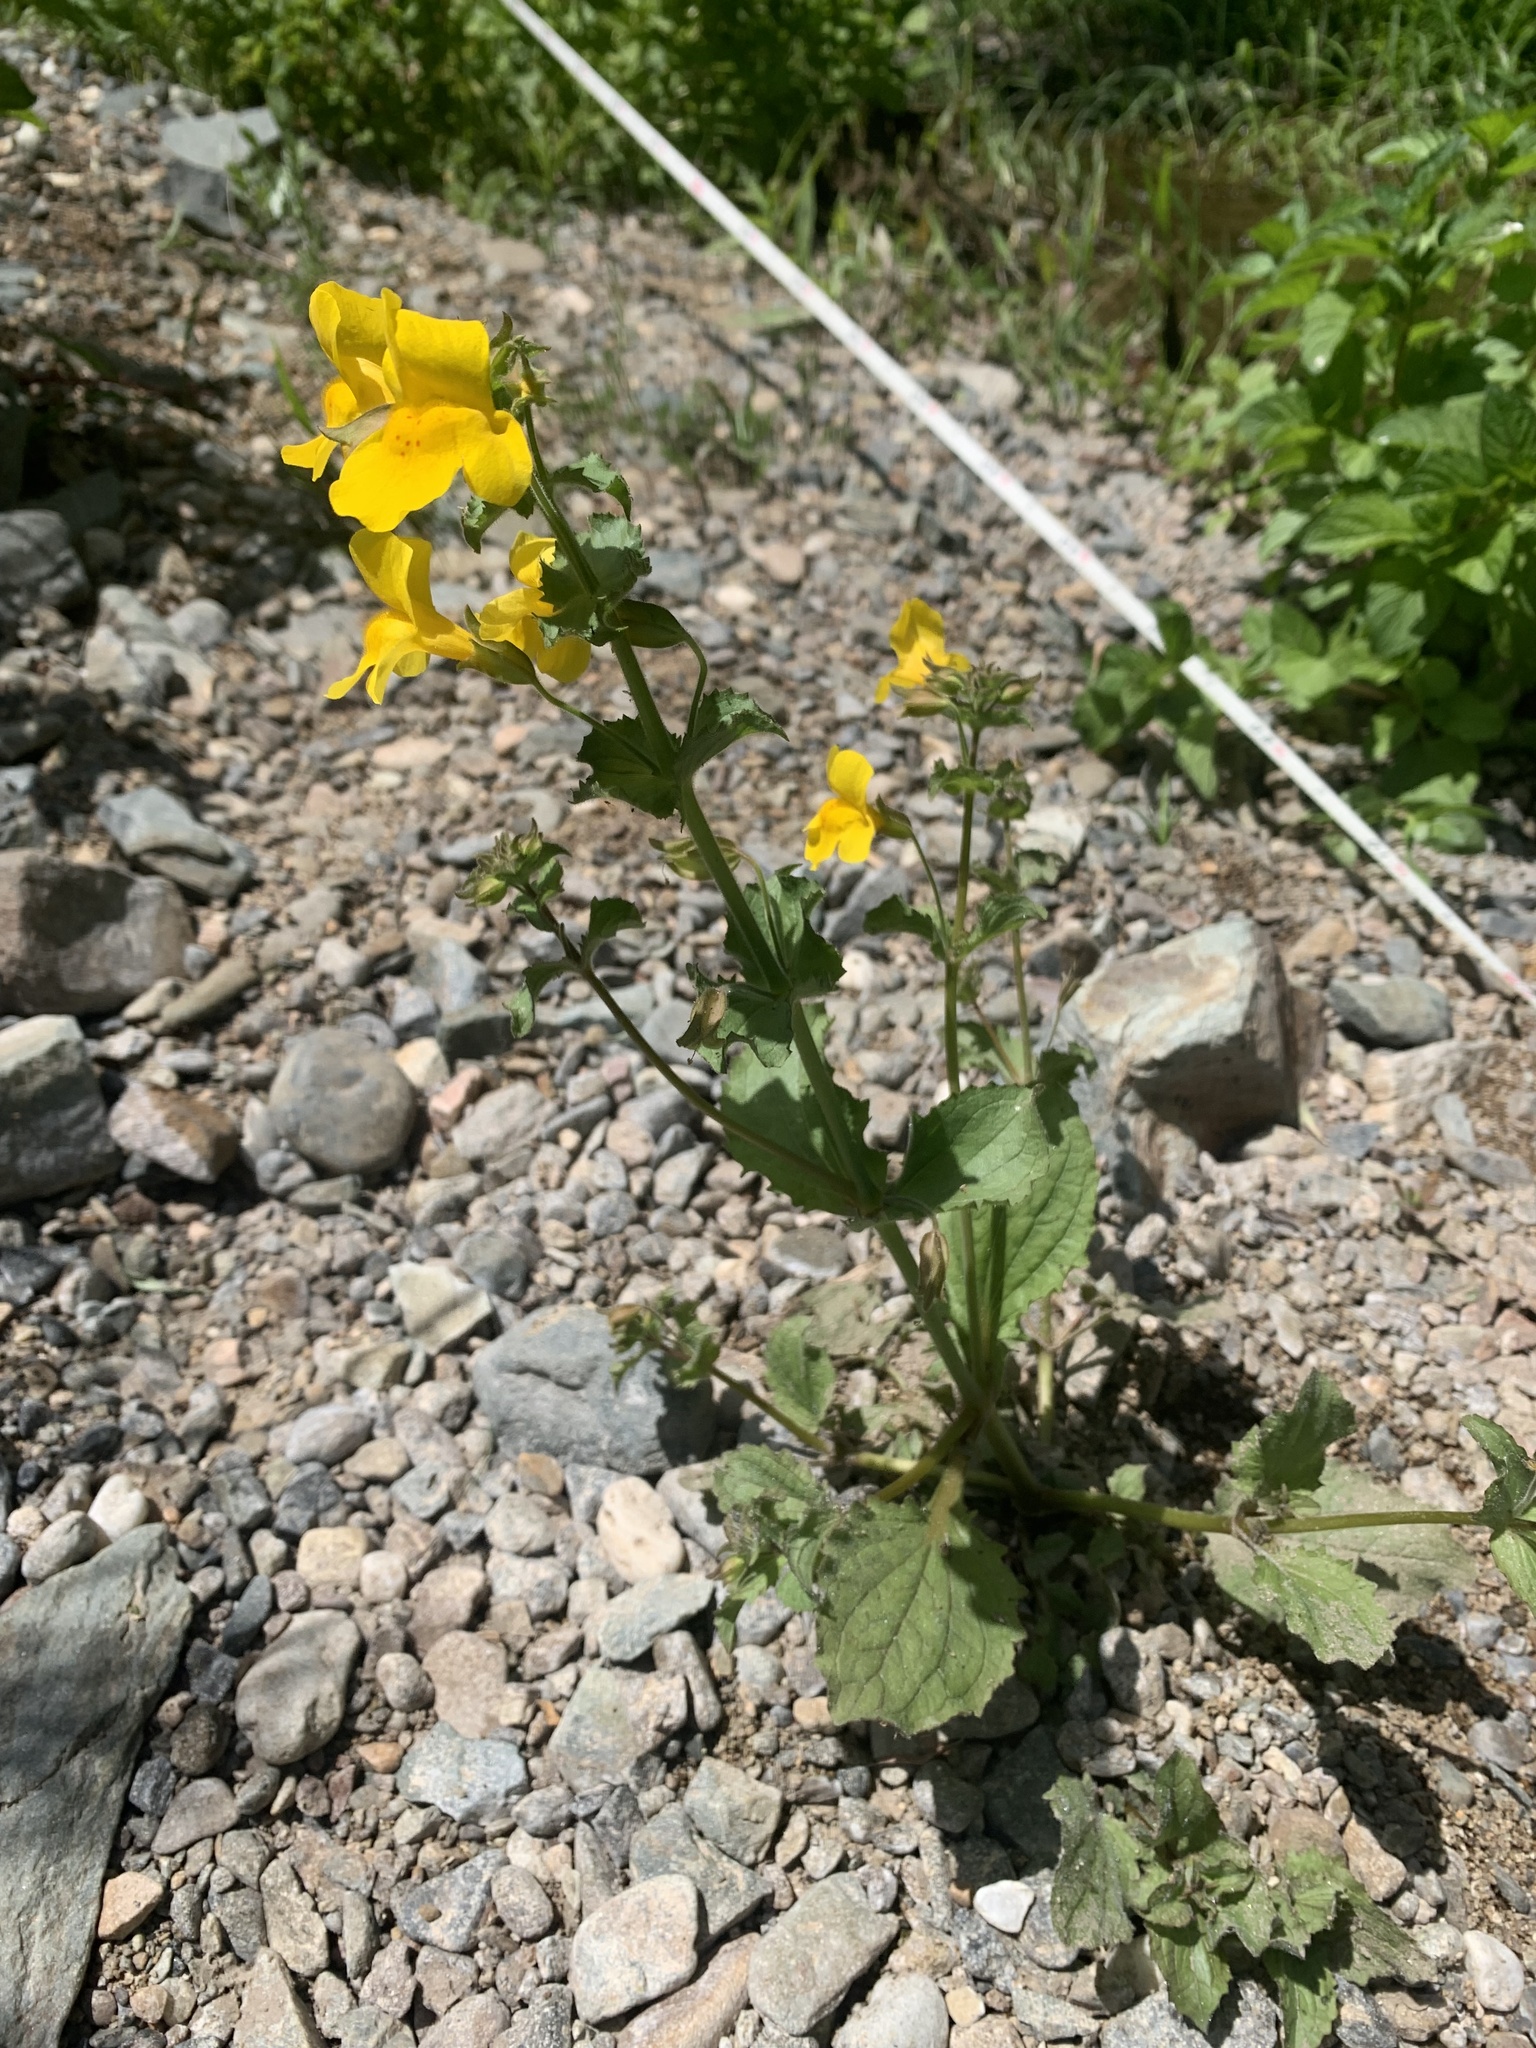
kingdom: Plantae
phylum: Tracheophyta
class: Magnoliopsida
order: Lamiales
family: Phrymaceae
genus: Erythranthe
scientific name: Erythranthe guttata
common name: Monkeyflower
